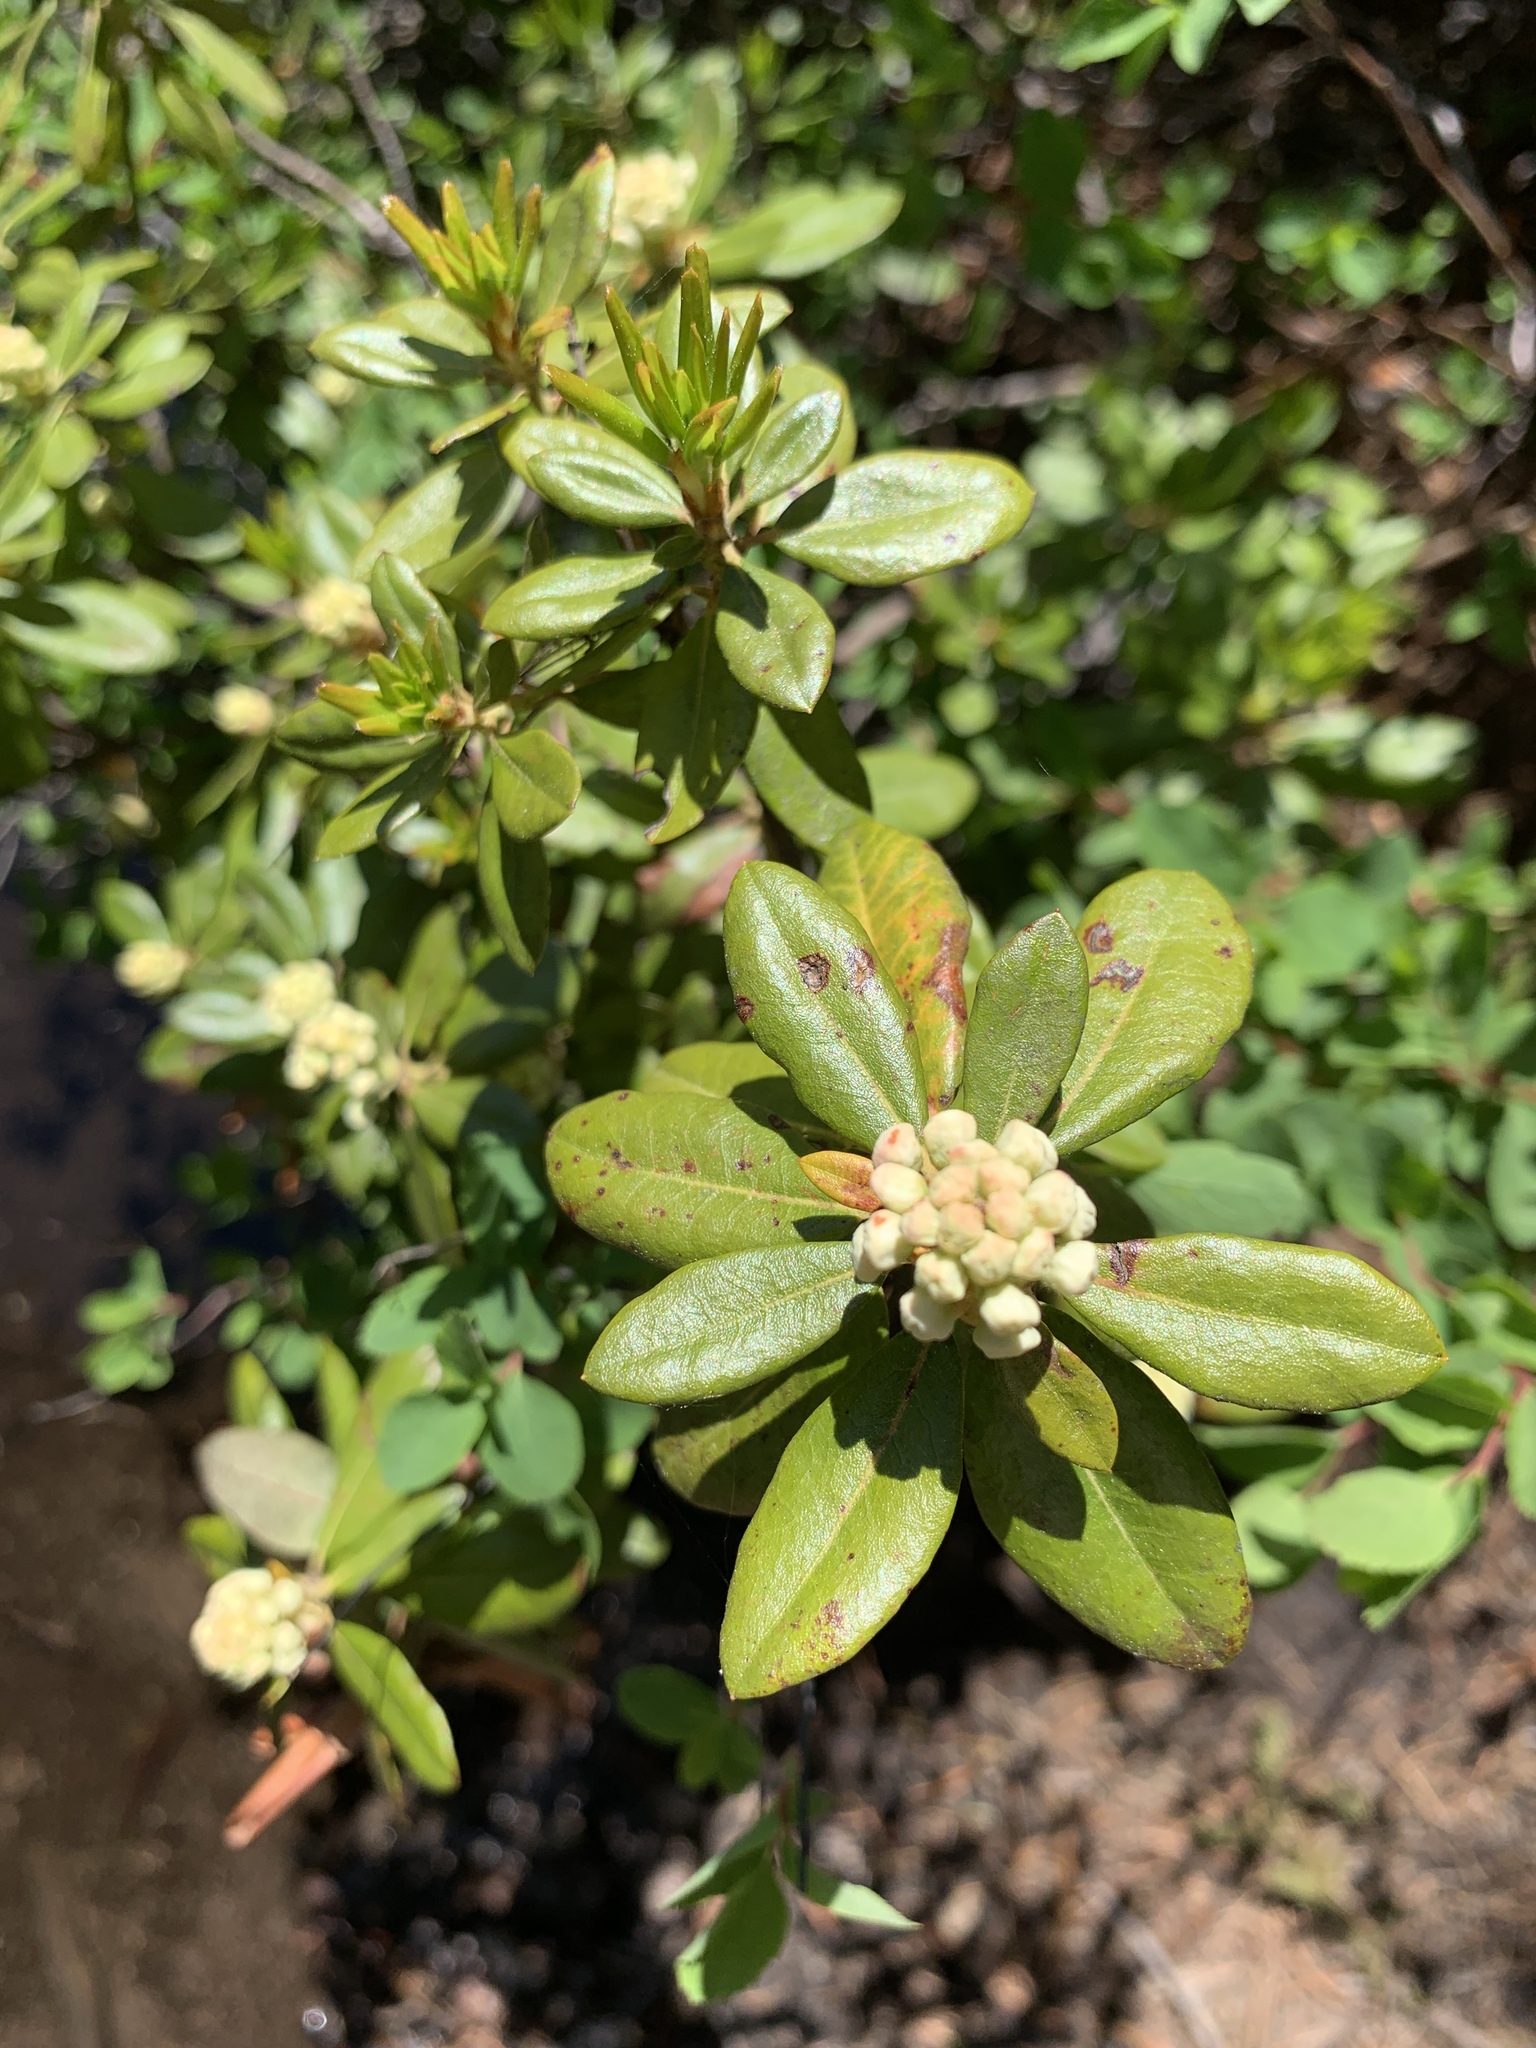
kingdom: Plantae
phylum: Tracheophyta
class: Magnoliopsida
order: Ericales
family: Ericaceae
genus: Rhododendron
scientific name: Rhododendron columbianum
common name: Western labrador tea
